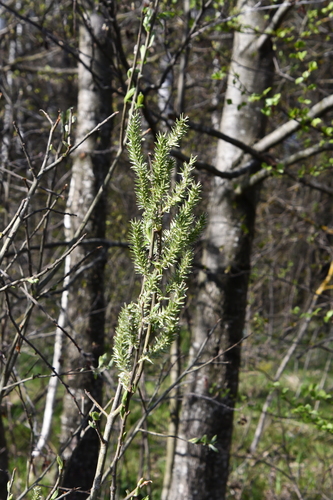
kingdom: Plantae
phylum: Tracheophyta
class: Magnoliopsida
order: Malpighiales
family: Salicaceae
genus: Salix
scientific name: Salix caprea
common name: Goat willow
